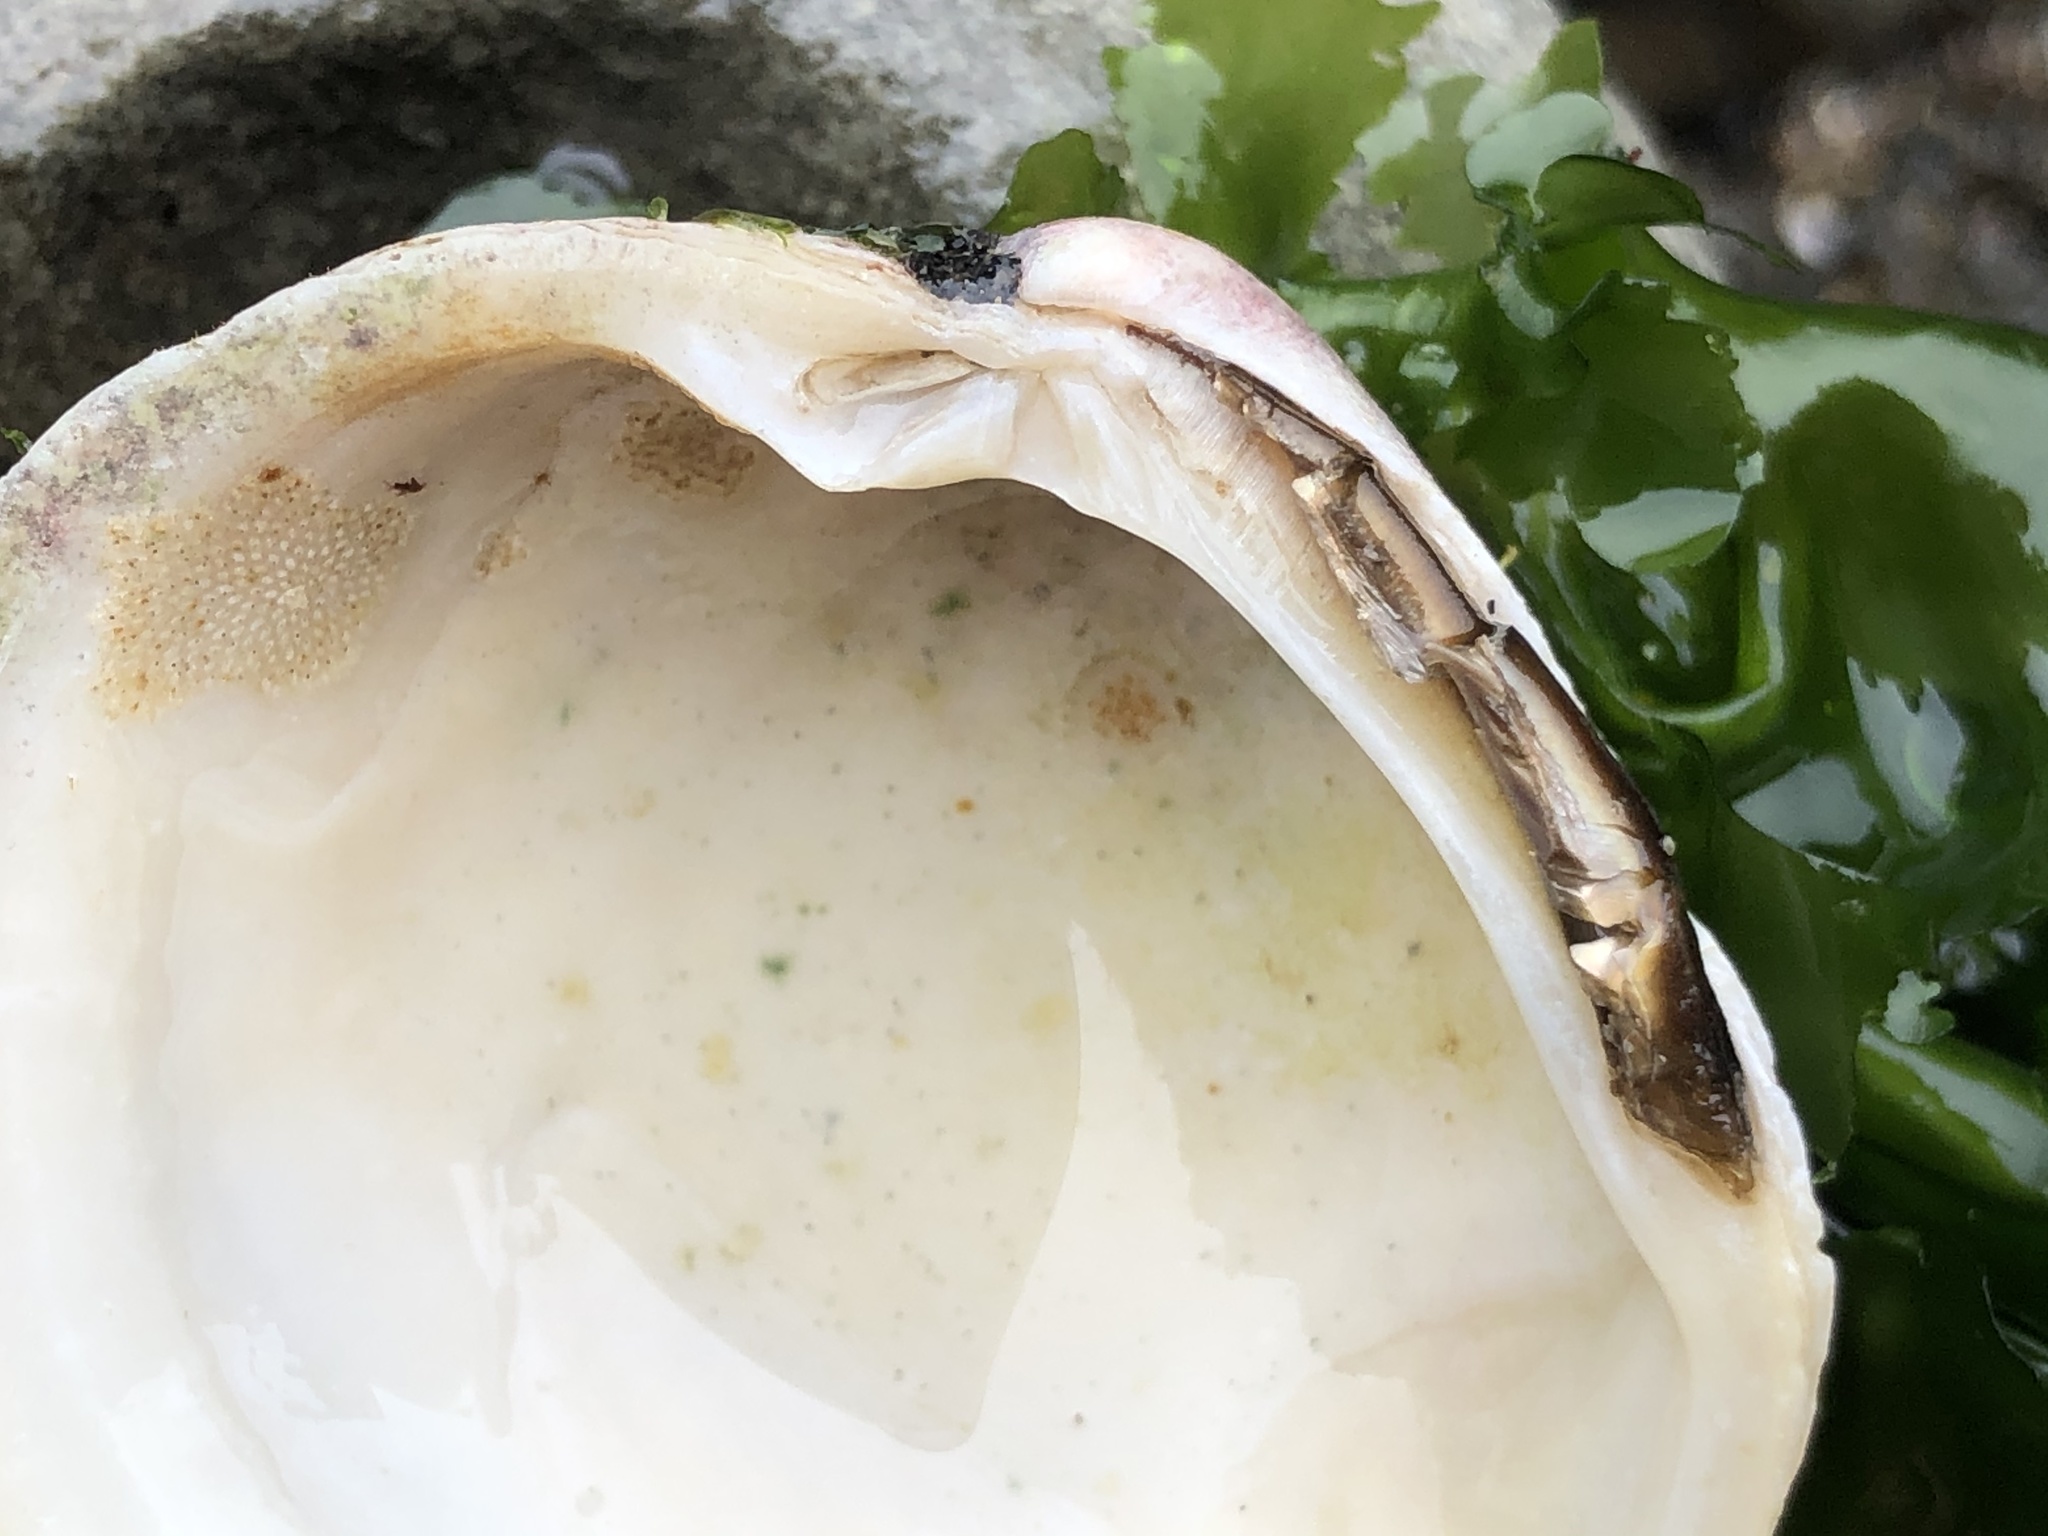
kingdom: Animalia
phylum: Mollusca
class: Bivalvia
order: Venerida
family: Veneridae
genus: Leukoma
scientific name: Leukoma staminea
